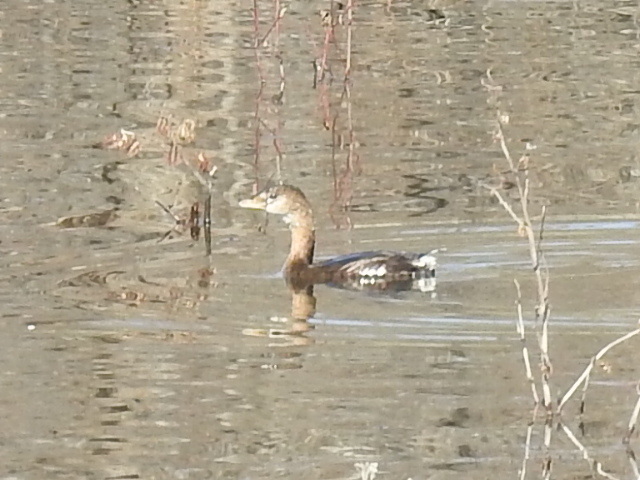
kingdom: Animalia
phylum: Chordata
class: Aves
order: Podicipediformes
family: Podicipedidae
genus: Podilymbus
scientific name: Podilymbus podiceps
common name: Pied-billed grebe
